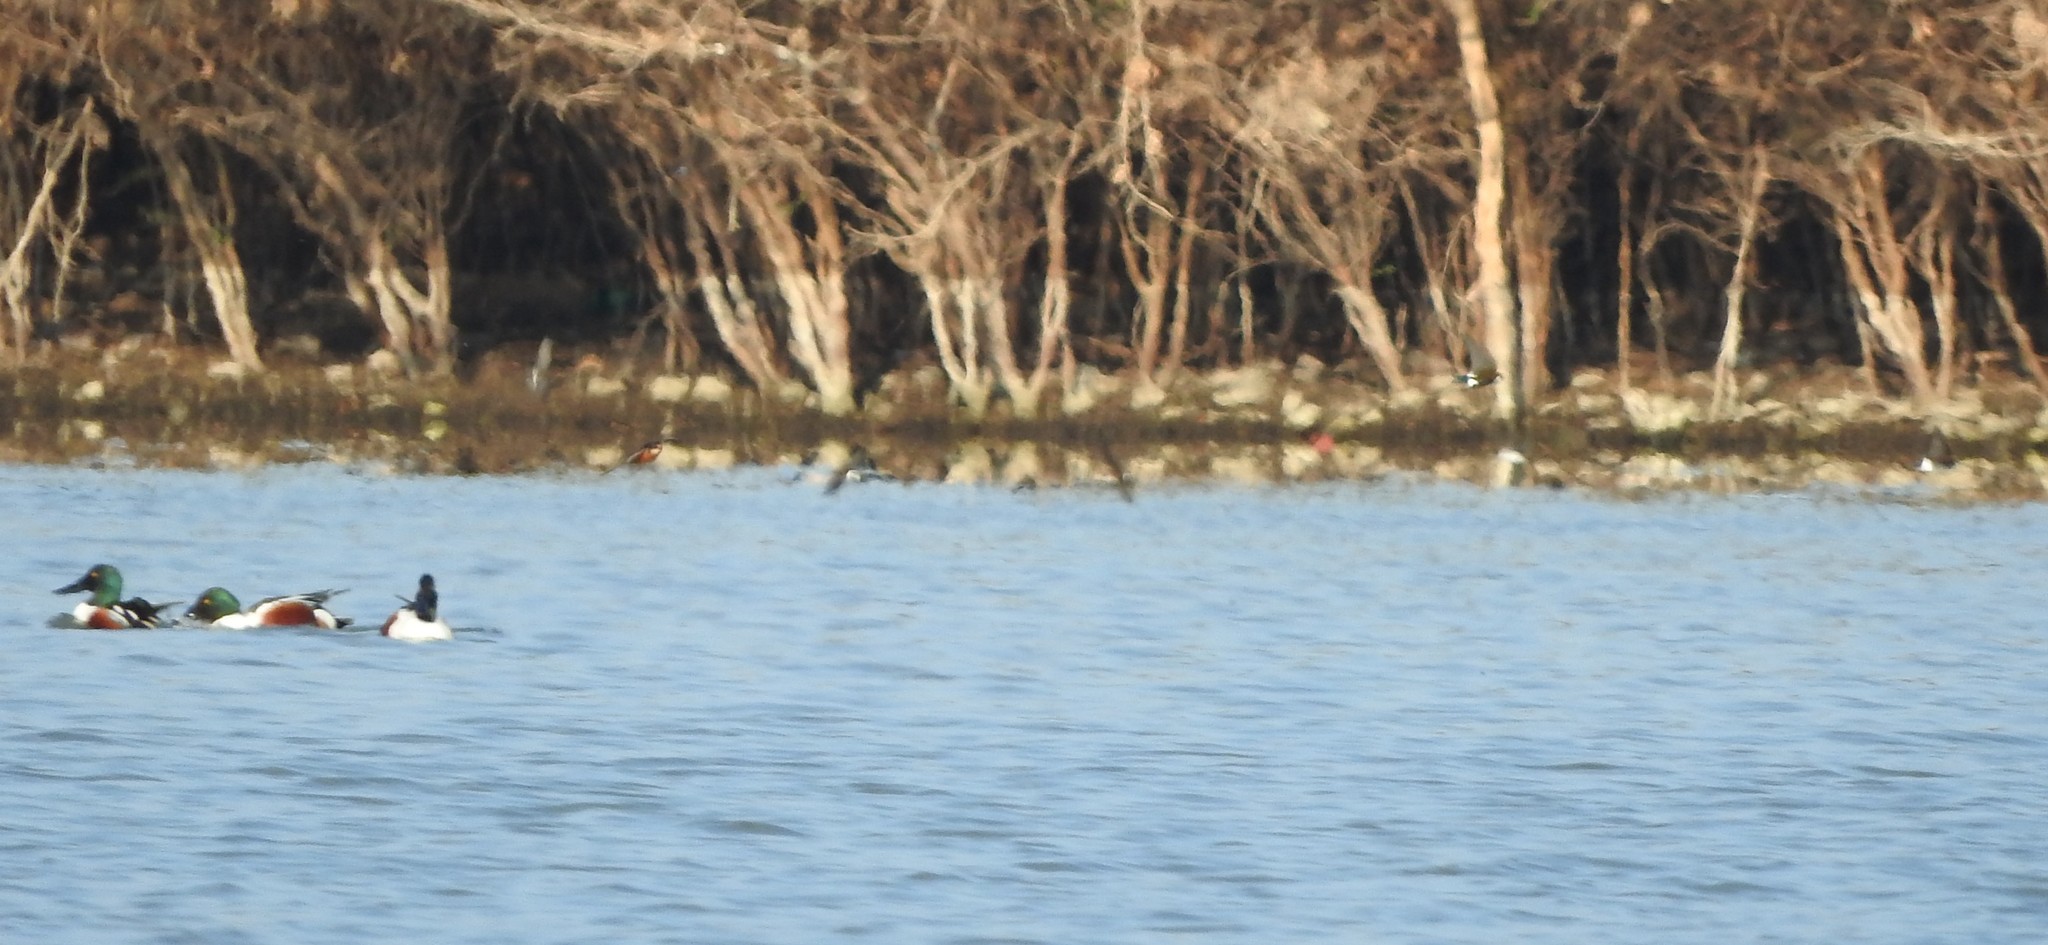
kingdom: Animalia
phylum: Chordata
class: Aves
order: Anseriformes
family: Anatidae
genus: Spatula
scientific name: Spatula clypeata
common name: Northern shoveler
